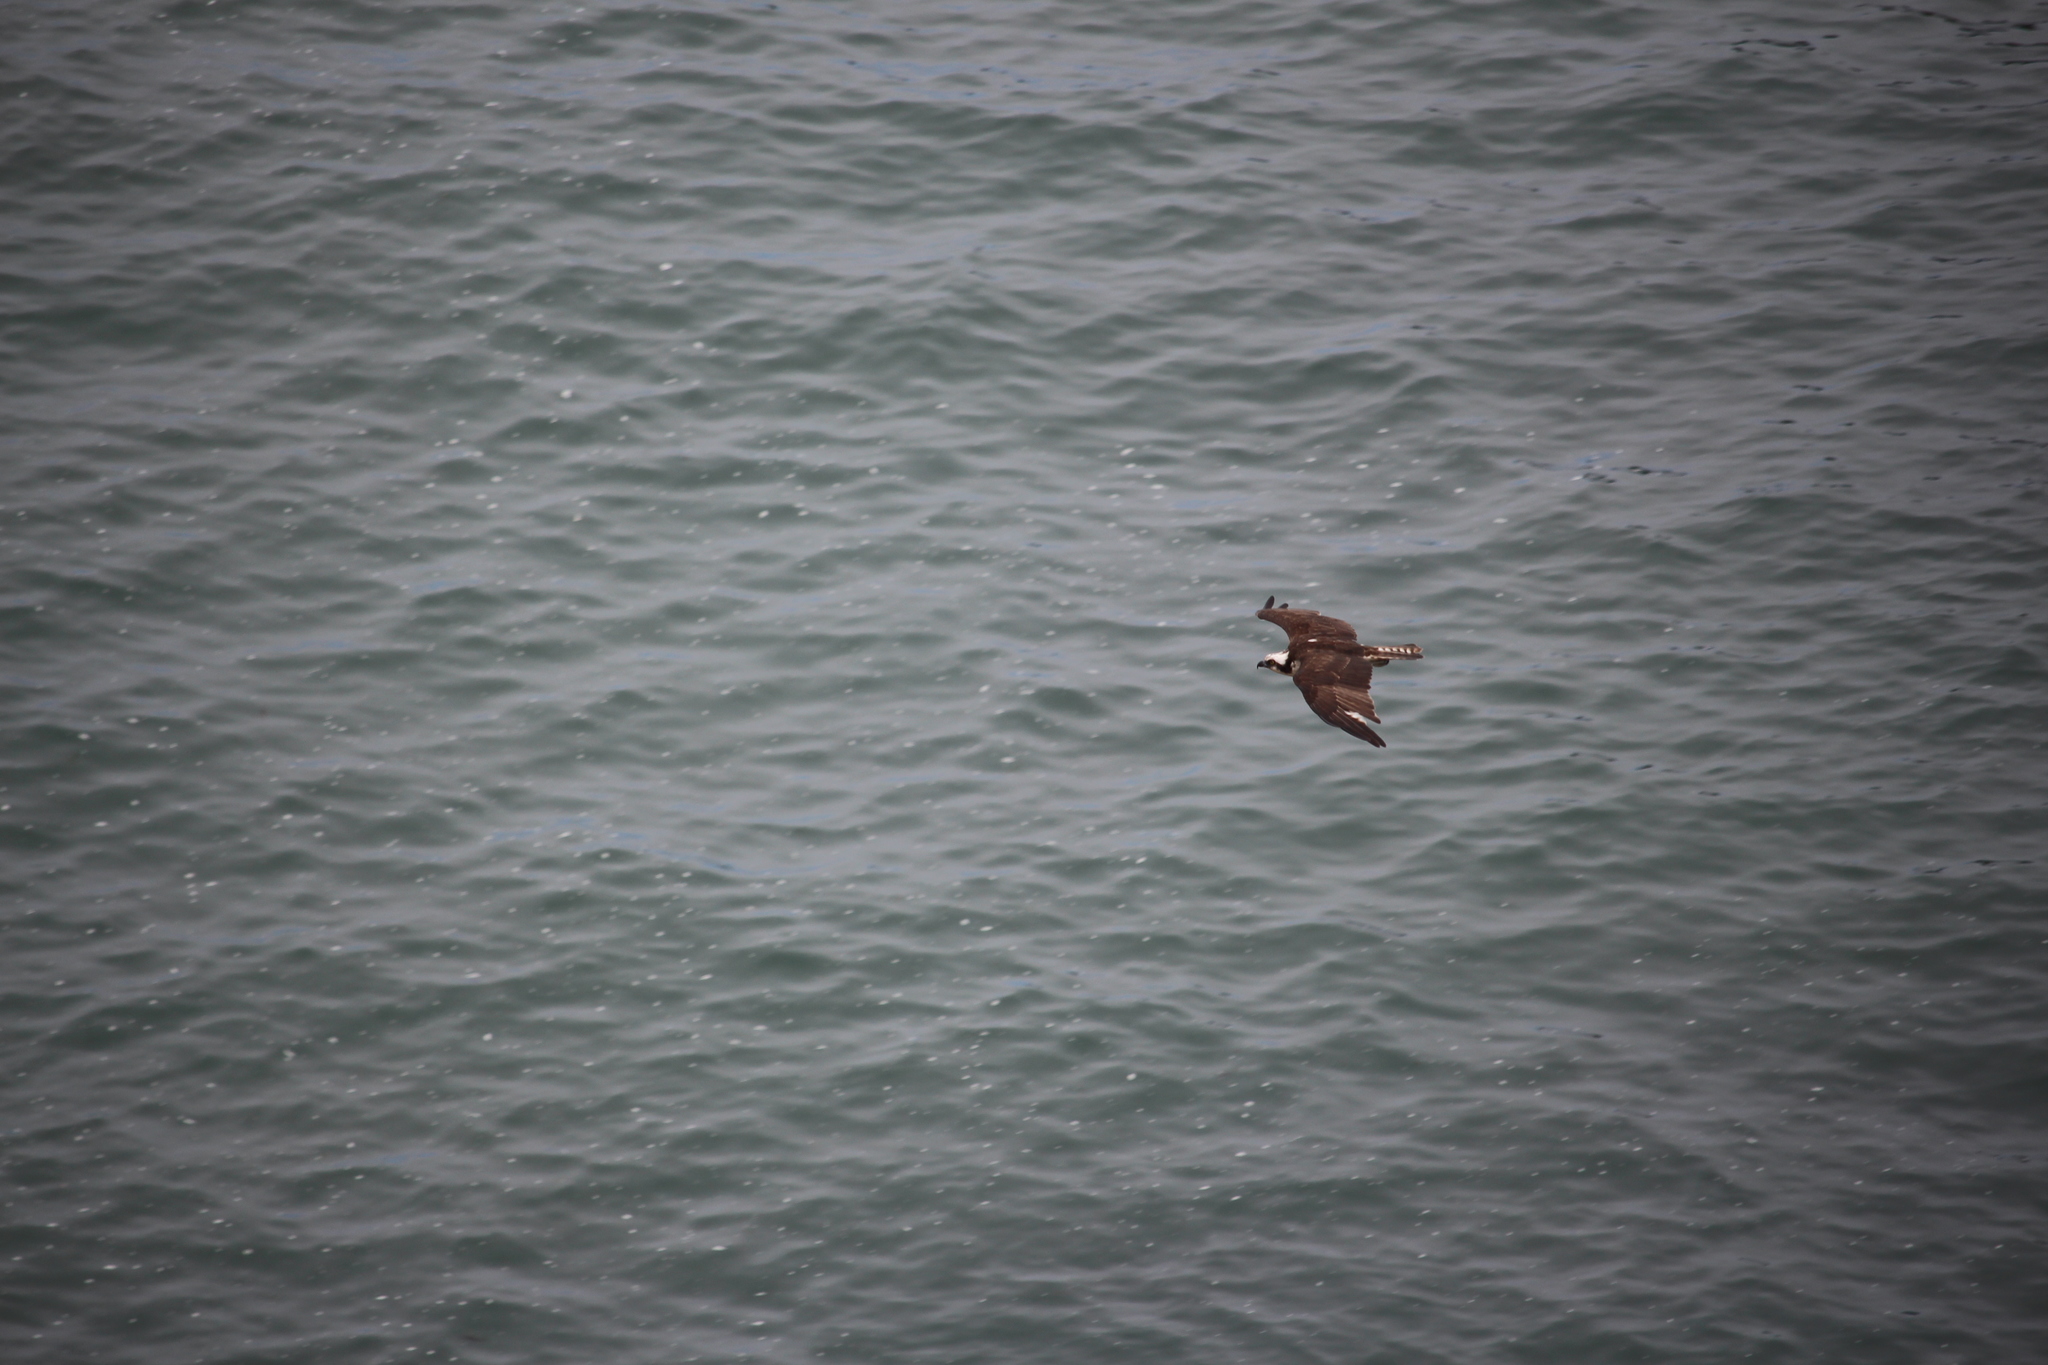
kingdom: Animalia
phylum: Chordata
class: Aves
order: Accipitriformes
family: Pandionidae
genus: Pandion
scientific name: Pandion haliaetus
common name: Osprey
